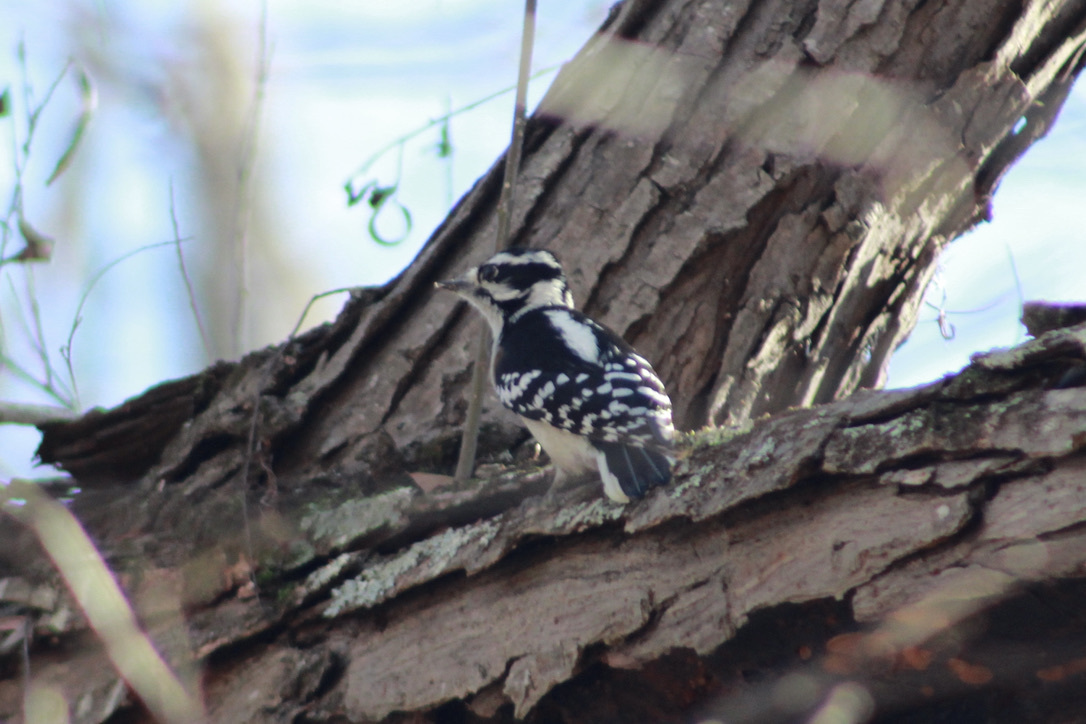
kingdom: Animalia
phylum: Chordata
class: Aves
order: Piciformes
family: Picidae
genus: Dryobates
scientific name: Dryobates pubescens
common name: Downy woodpecker
